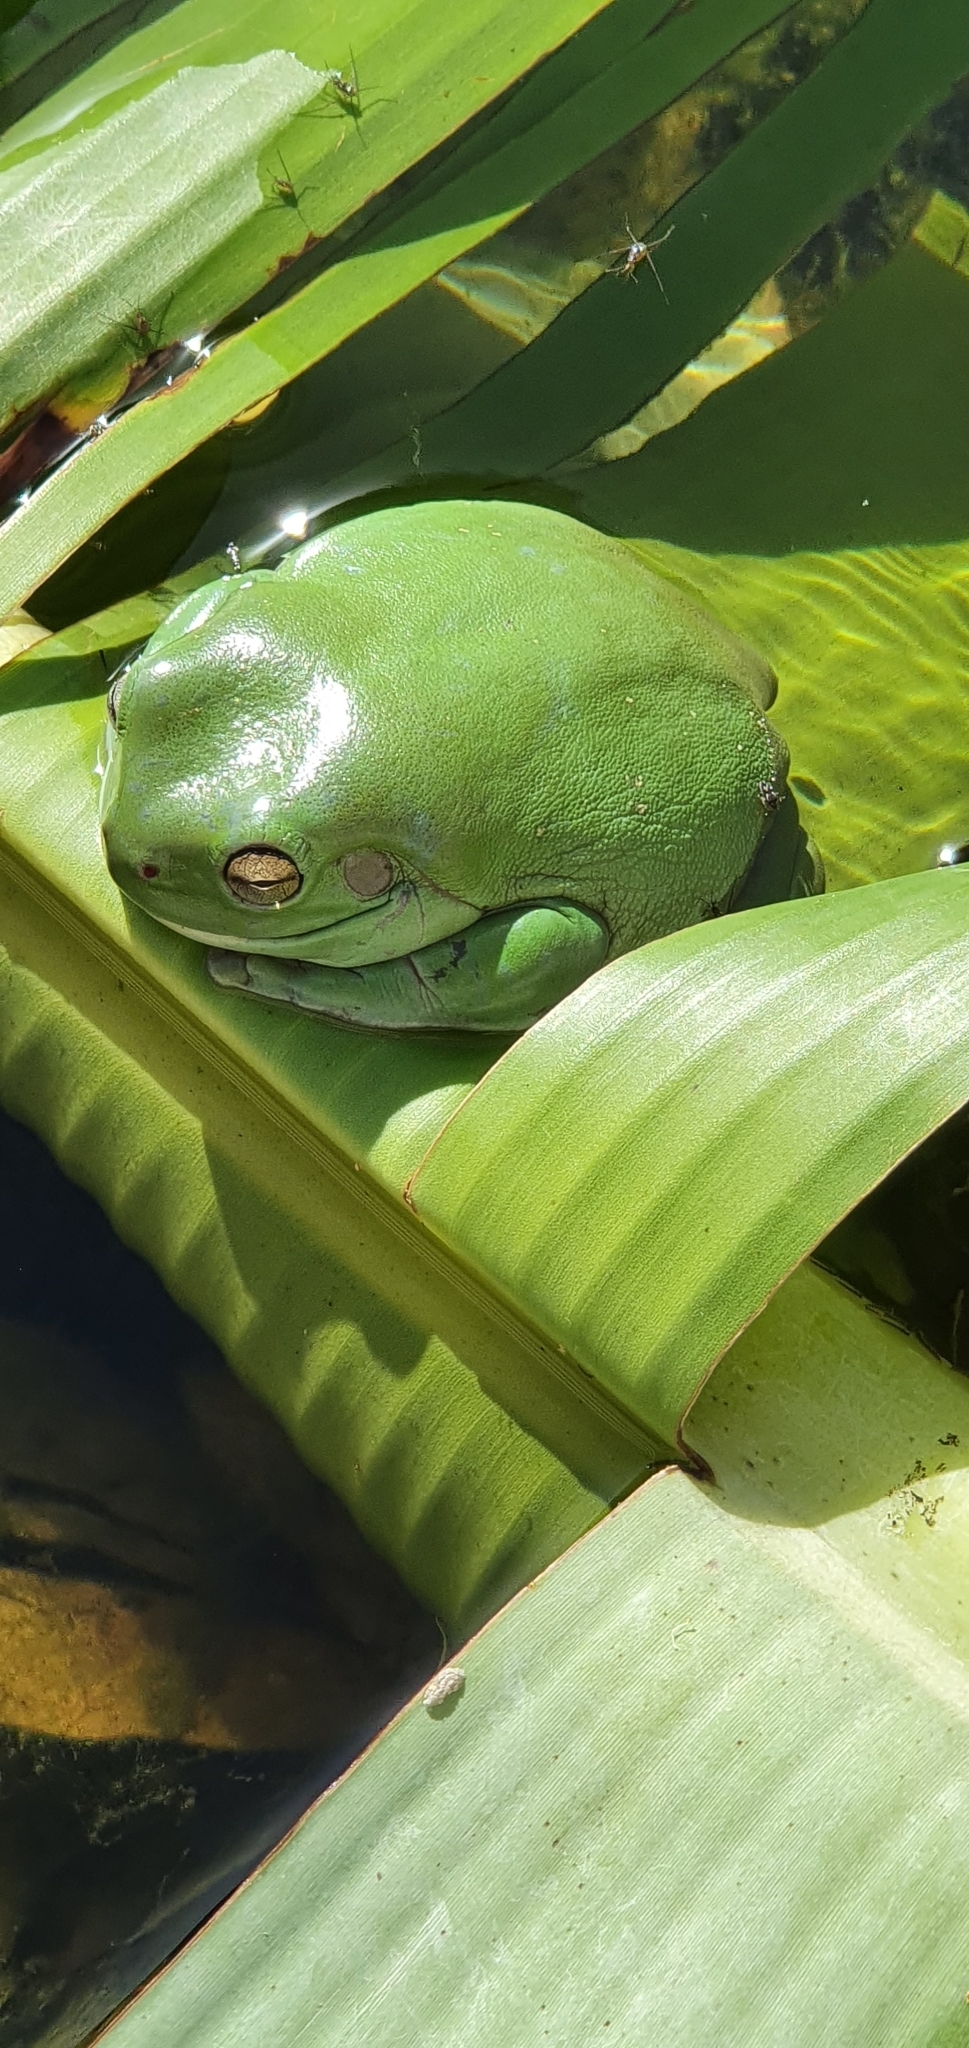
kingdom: Animalia
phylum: Chordata
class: Amphibia
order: Anura
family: Pelodryadidae
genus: Ranoidea
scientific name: Ranoidea caerulea
